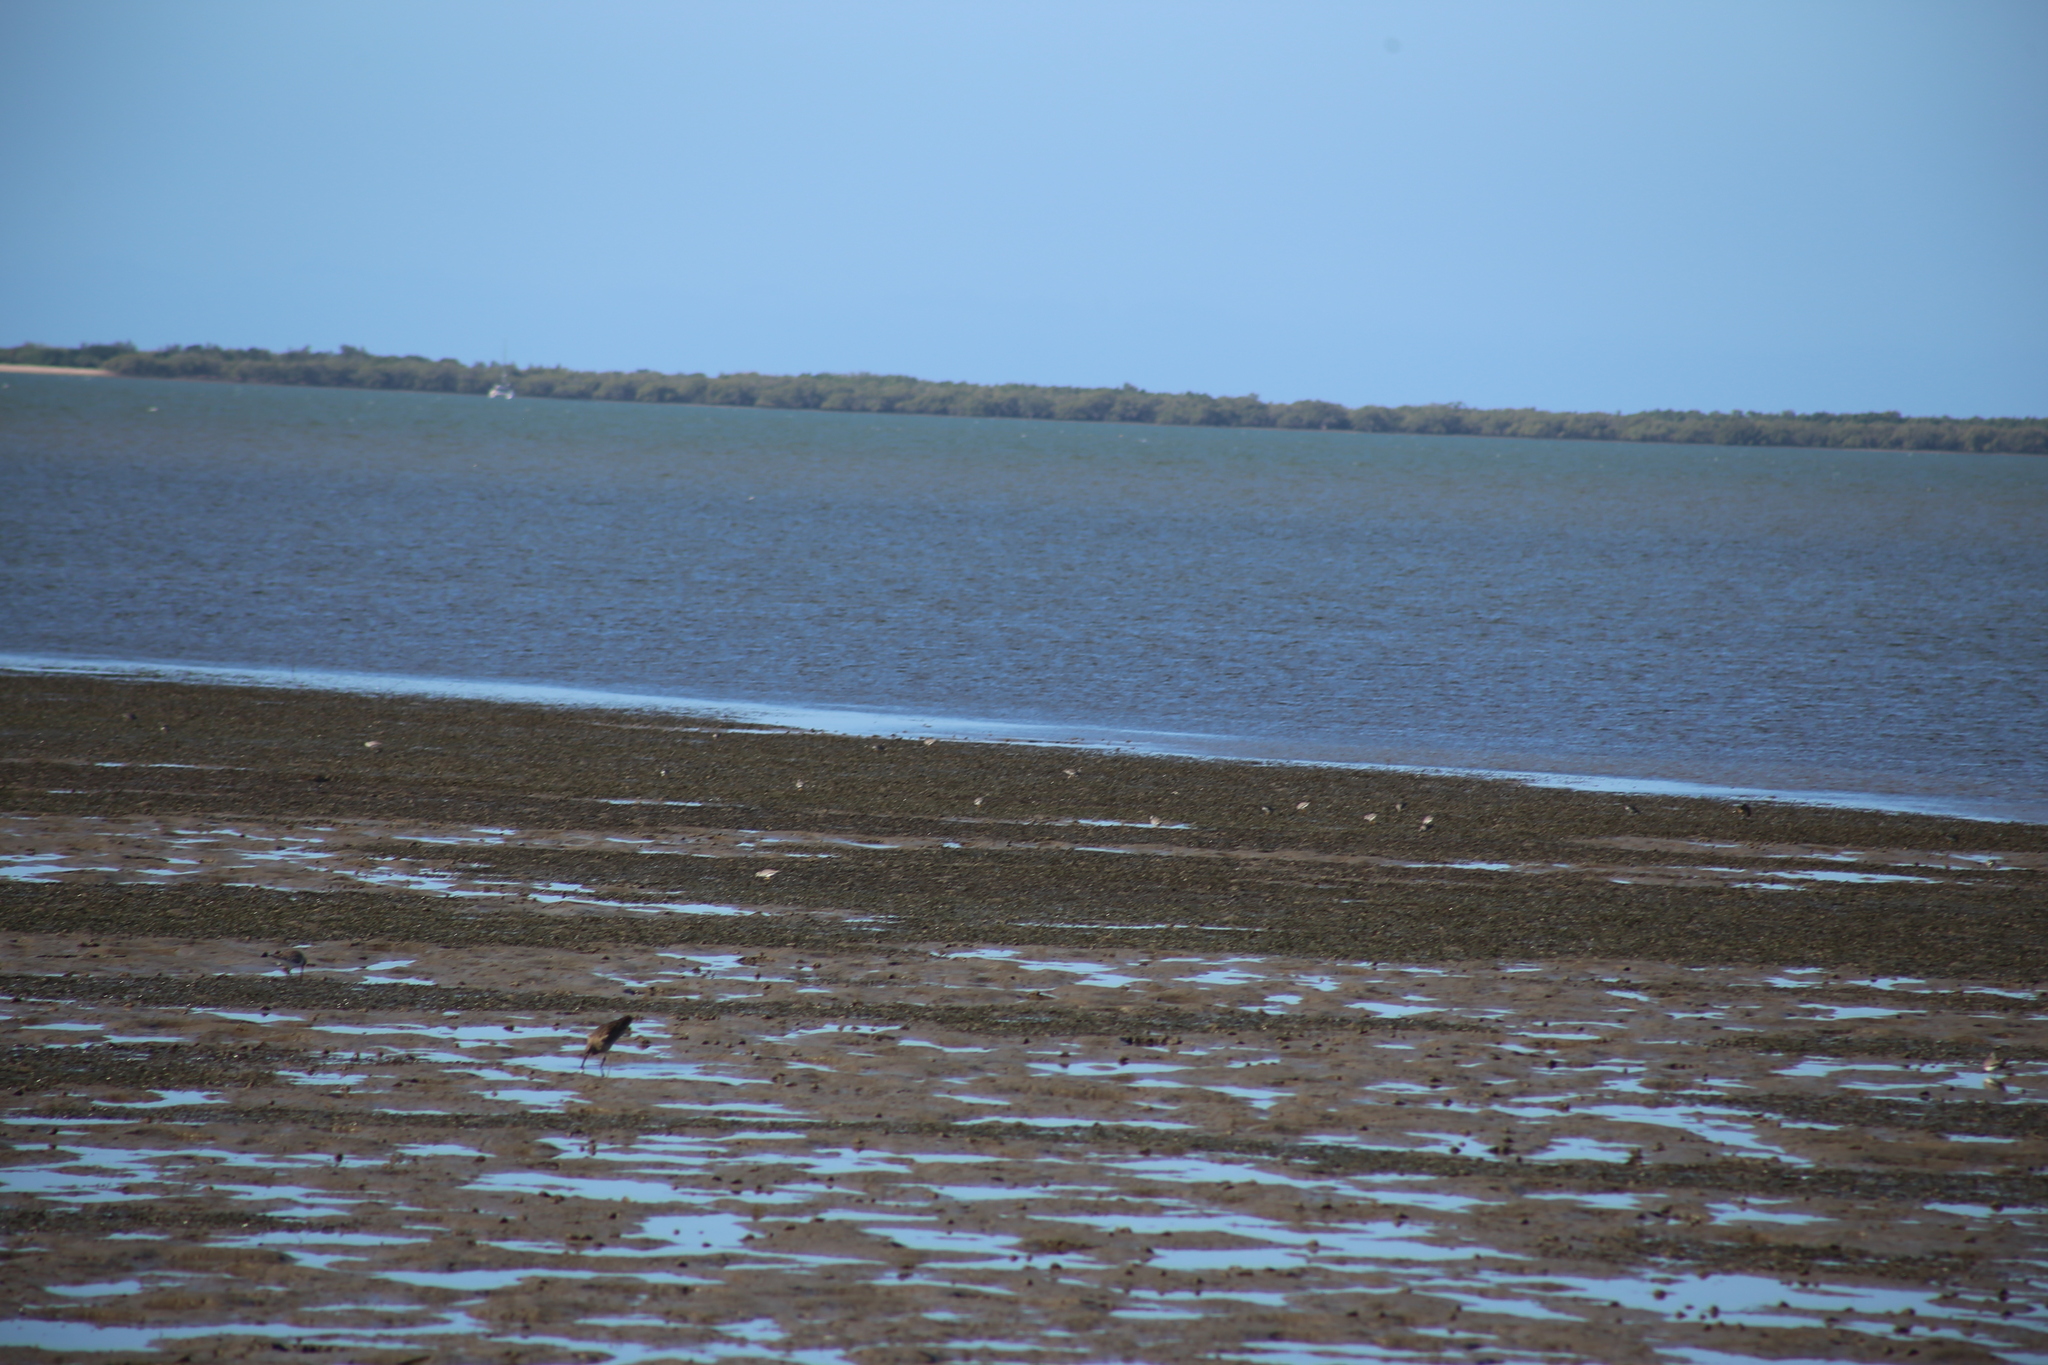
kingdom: Animalia
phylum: Chordata
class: Aves
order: Charadriiformes
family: Scolopacidae
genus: Numenius
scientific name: Numenius phaeopus
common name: Whimbrel
